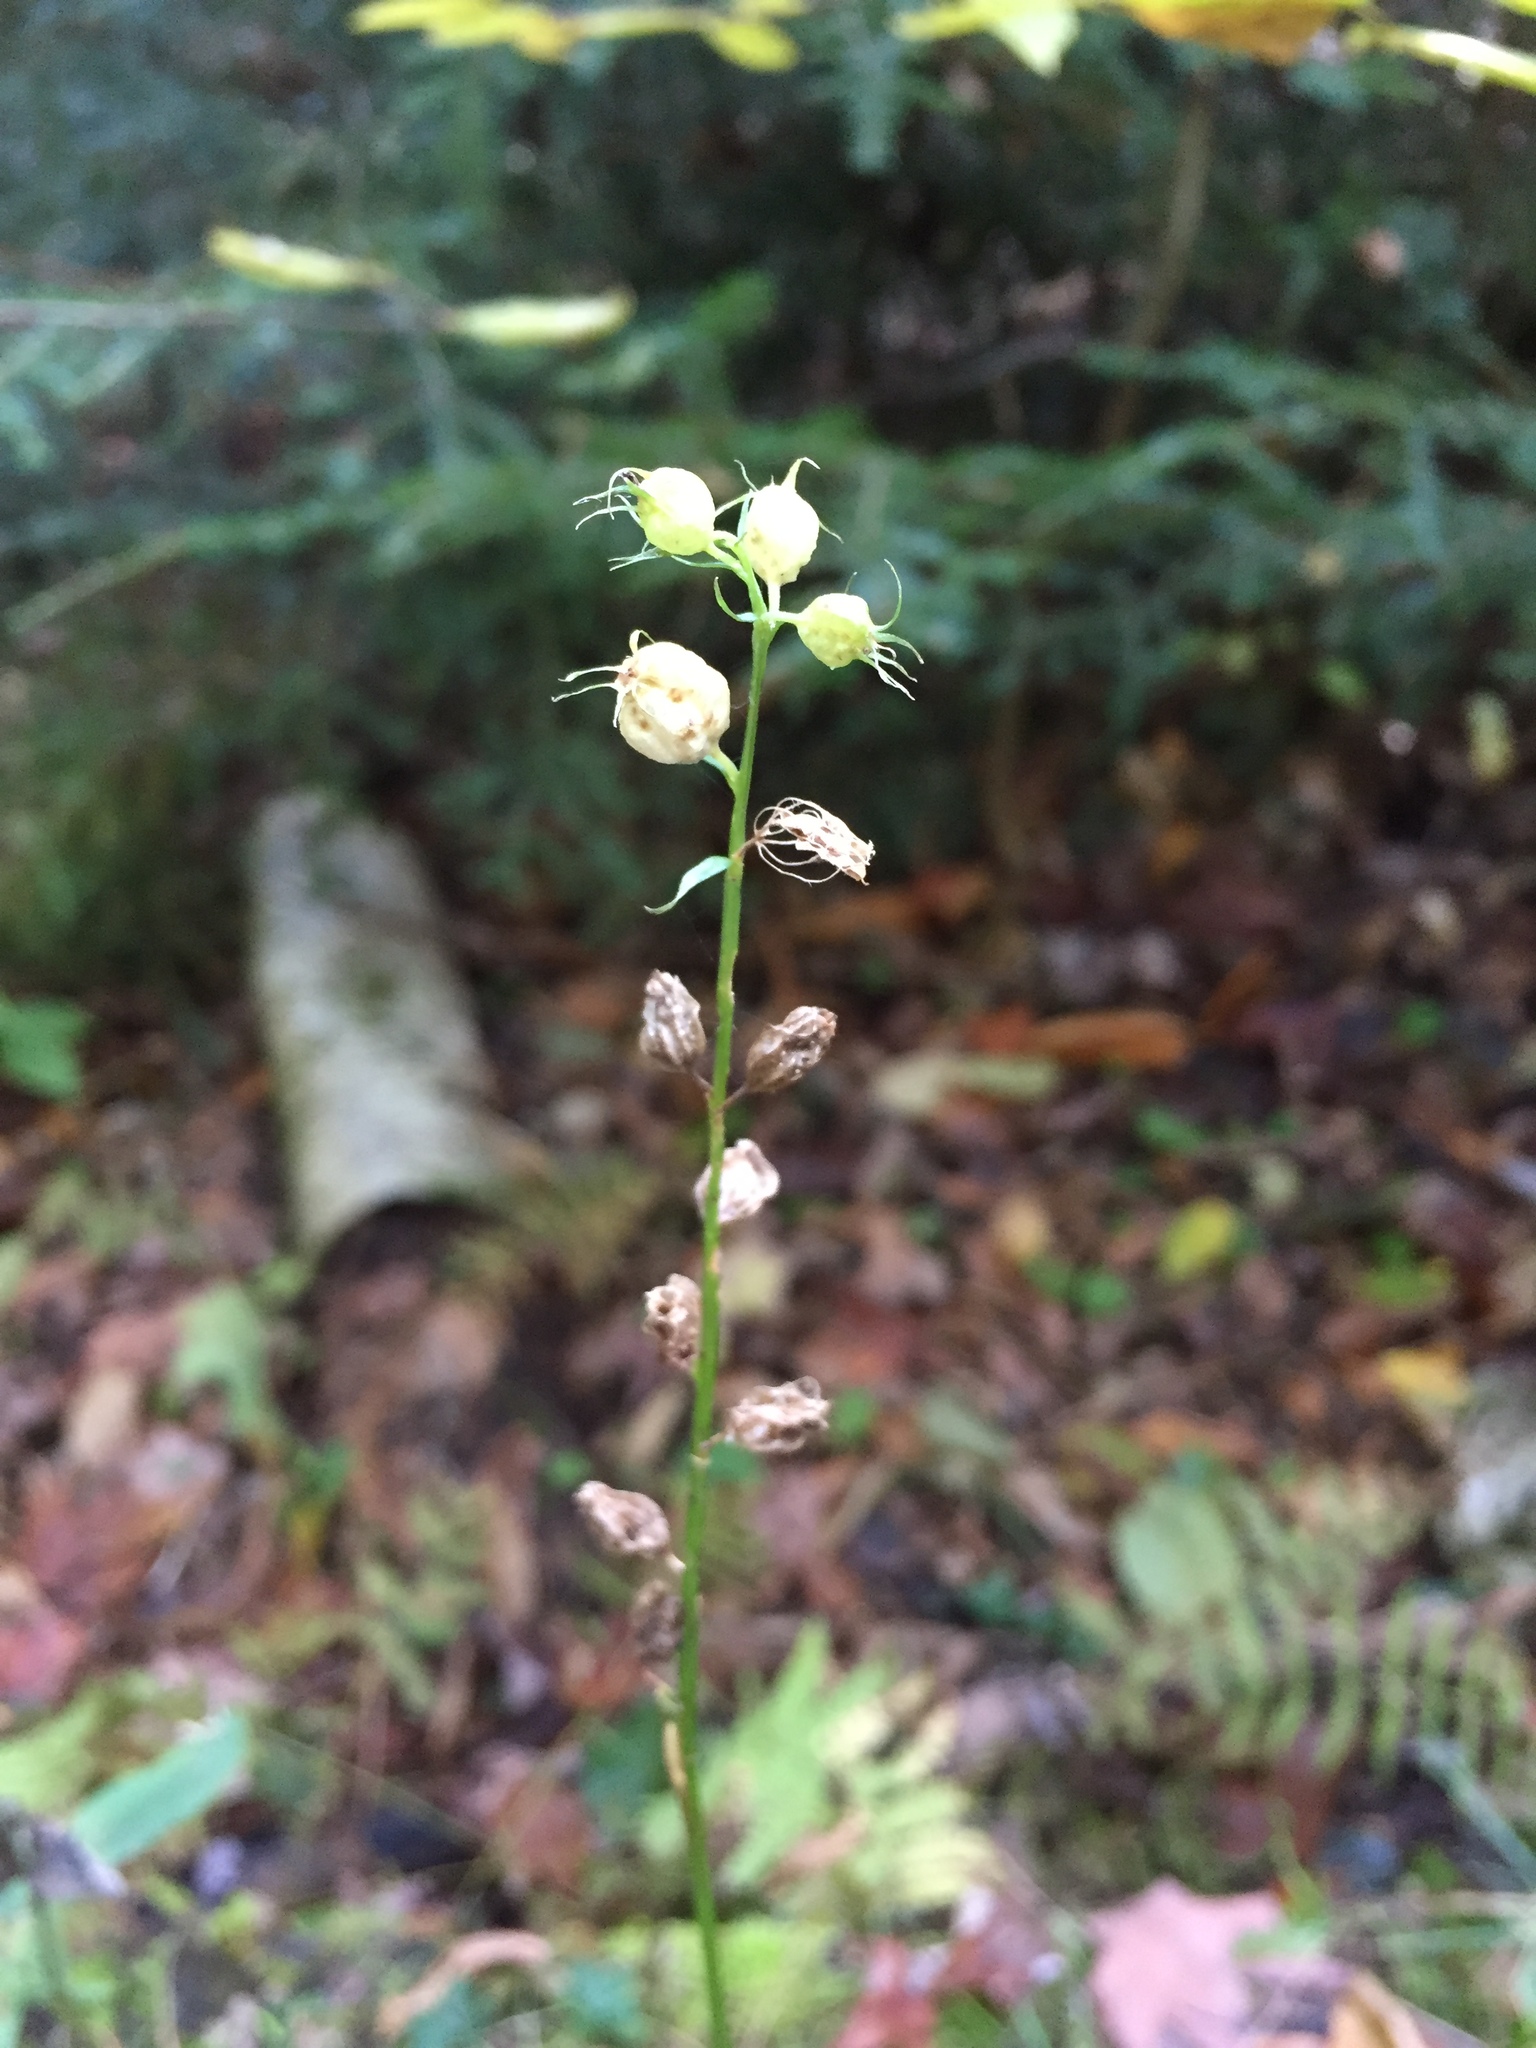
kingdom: Plantae
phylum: Tracheophyta
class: Magnoliopsida
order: Asterales
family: Campanulaceae
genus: Lobelia
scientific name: Lobelia inflata
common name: Indian tobacco
